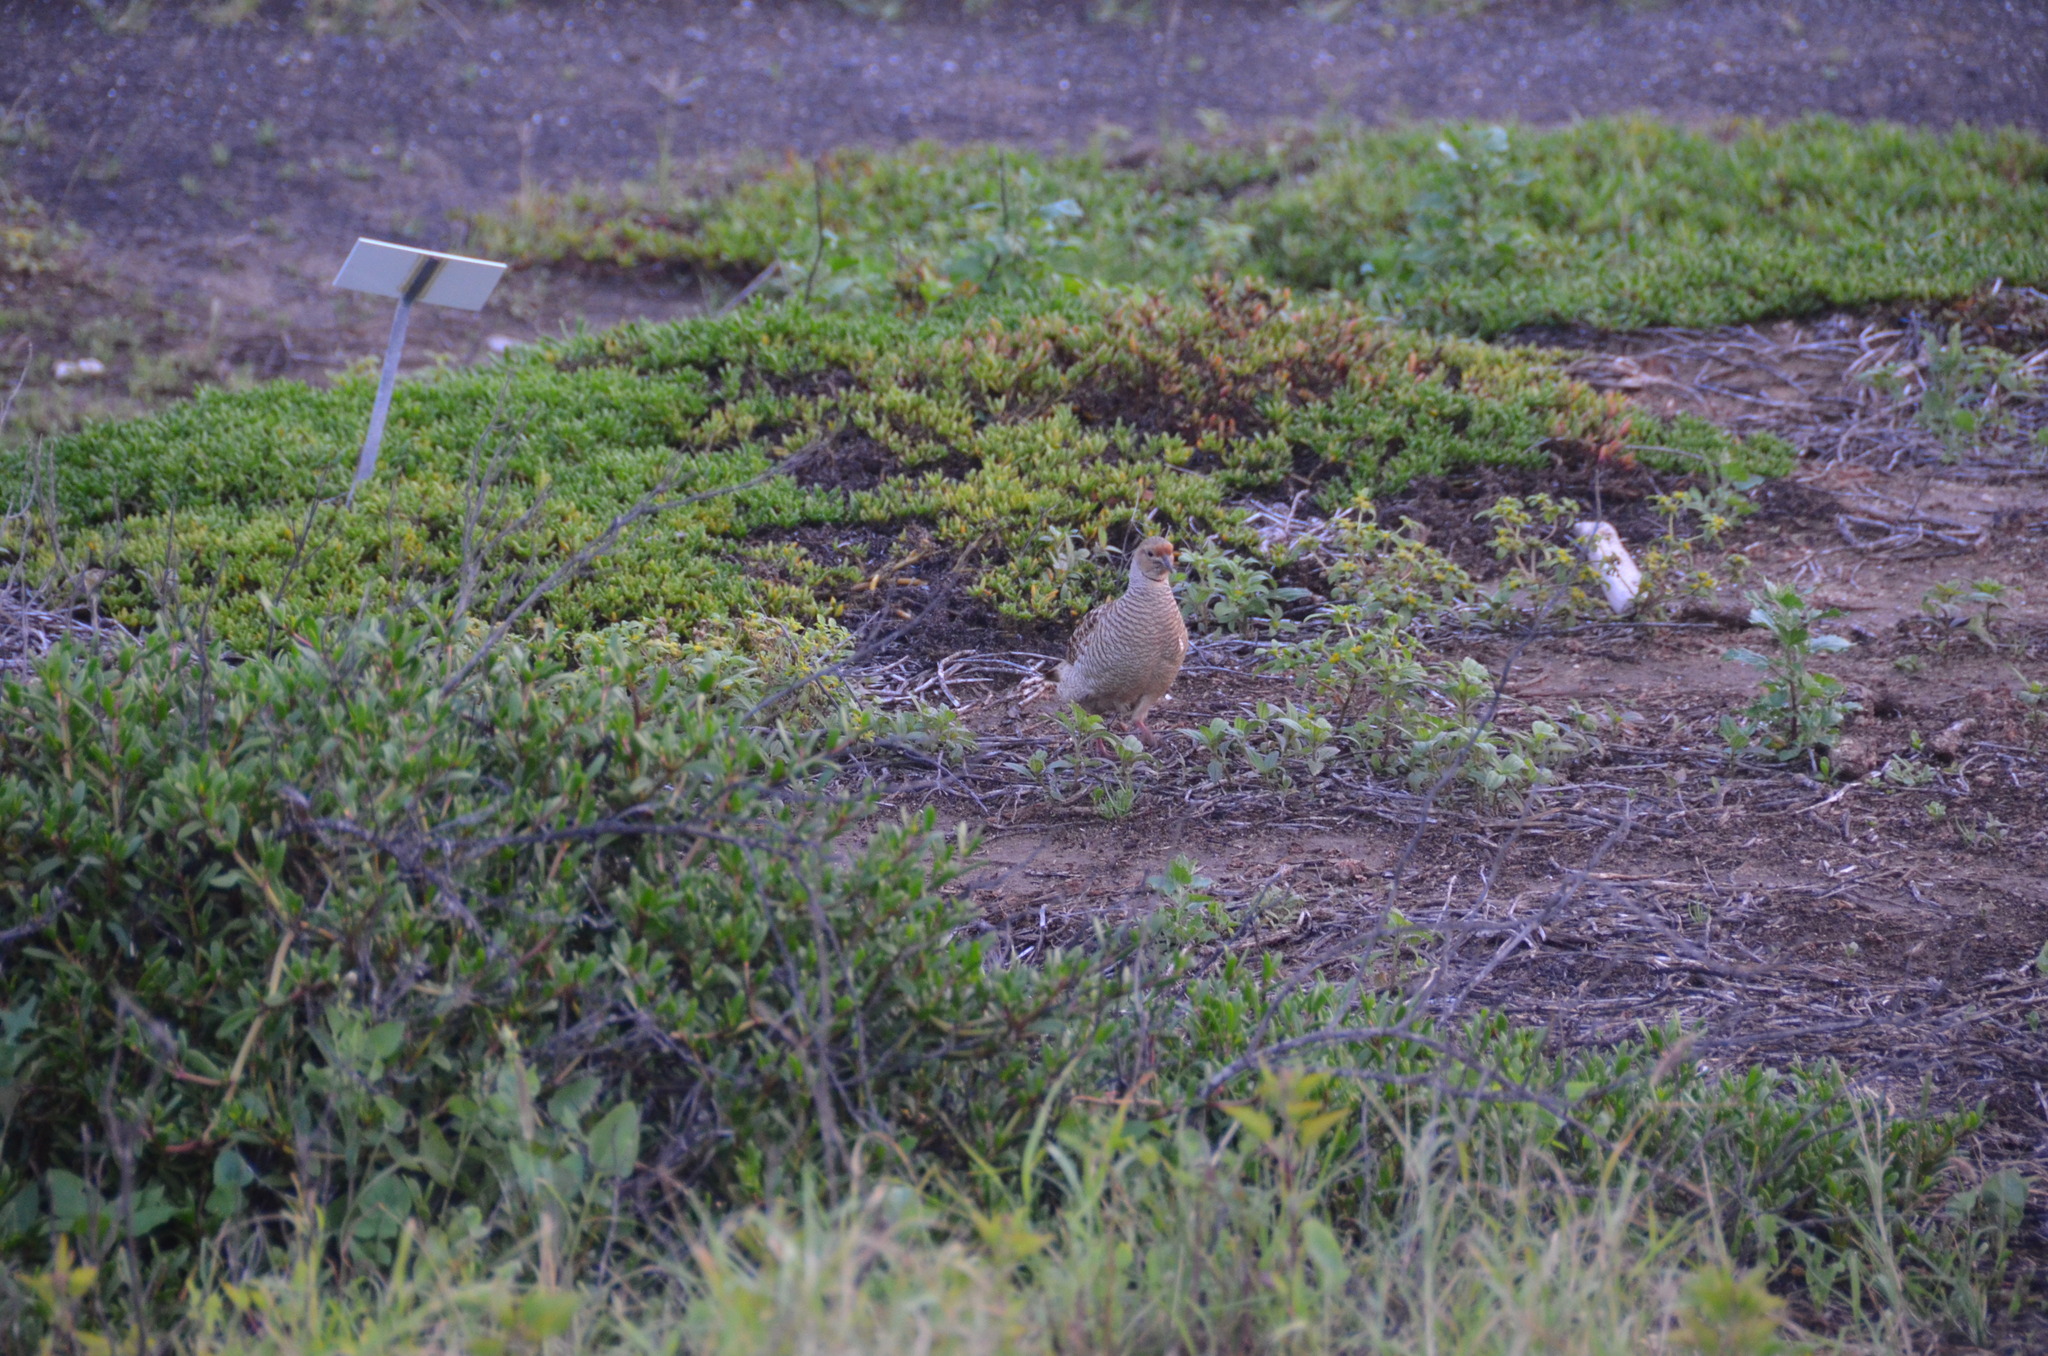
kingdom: Animalia
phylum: Chordata
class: Aves
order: Galliformes
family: Phasianidae
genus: Ortygornis
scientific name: Ortygornis pondicerianus
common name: Grey francolin
